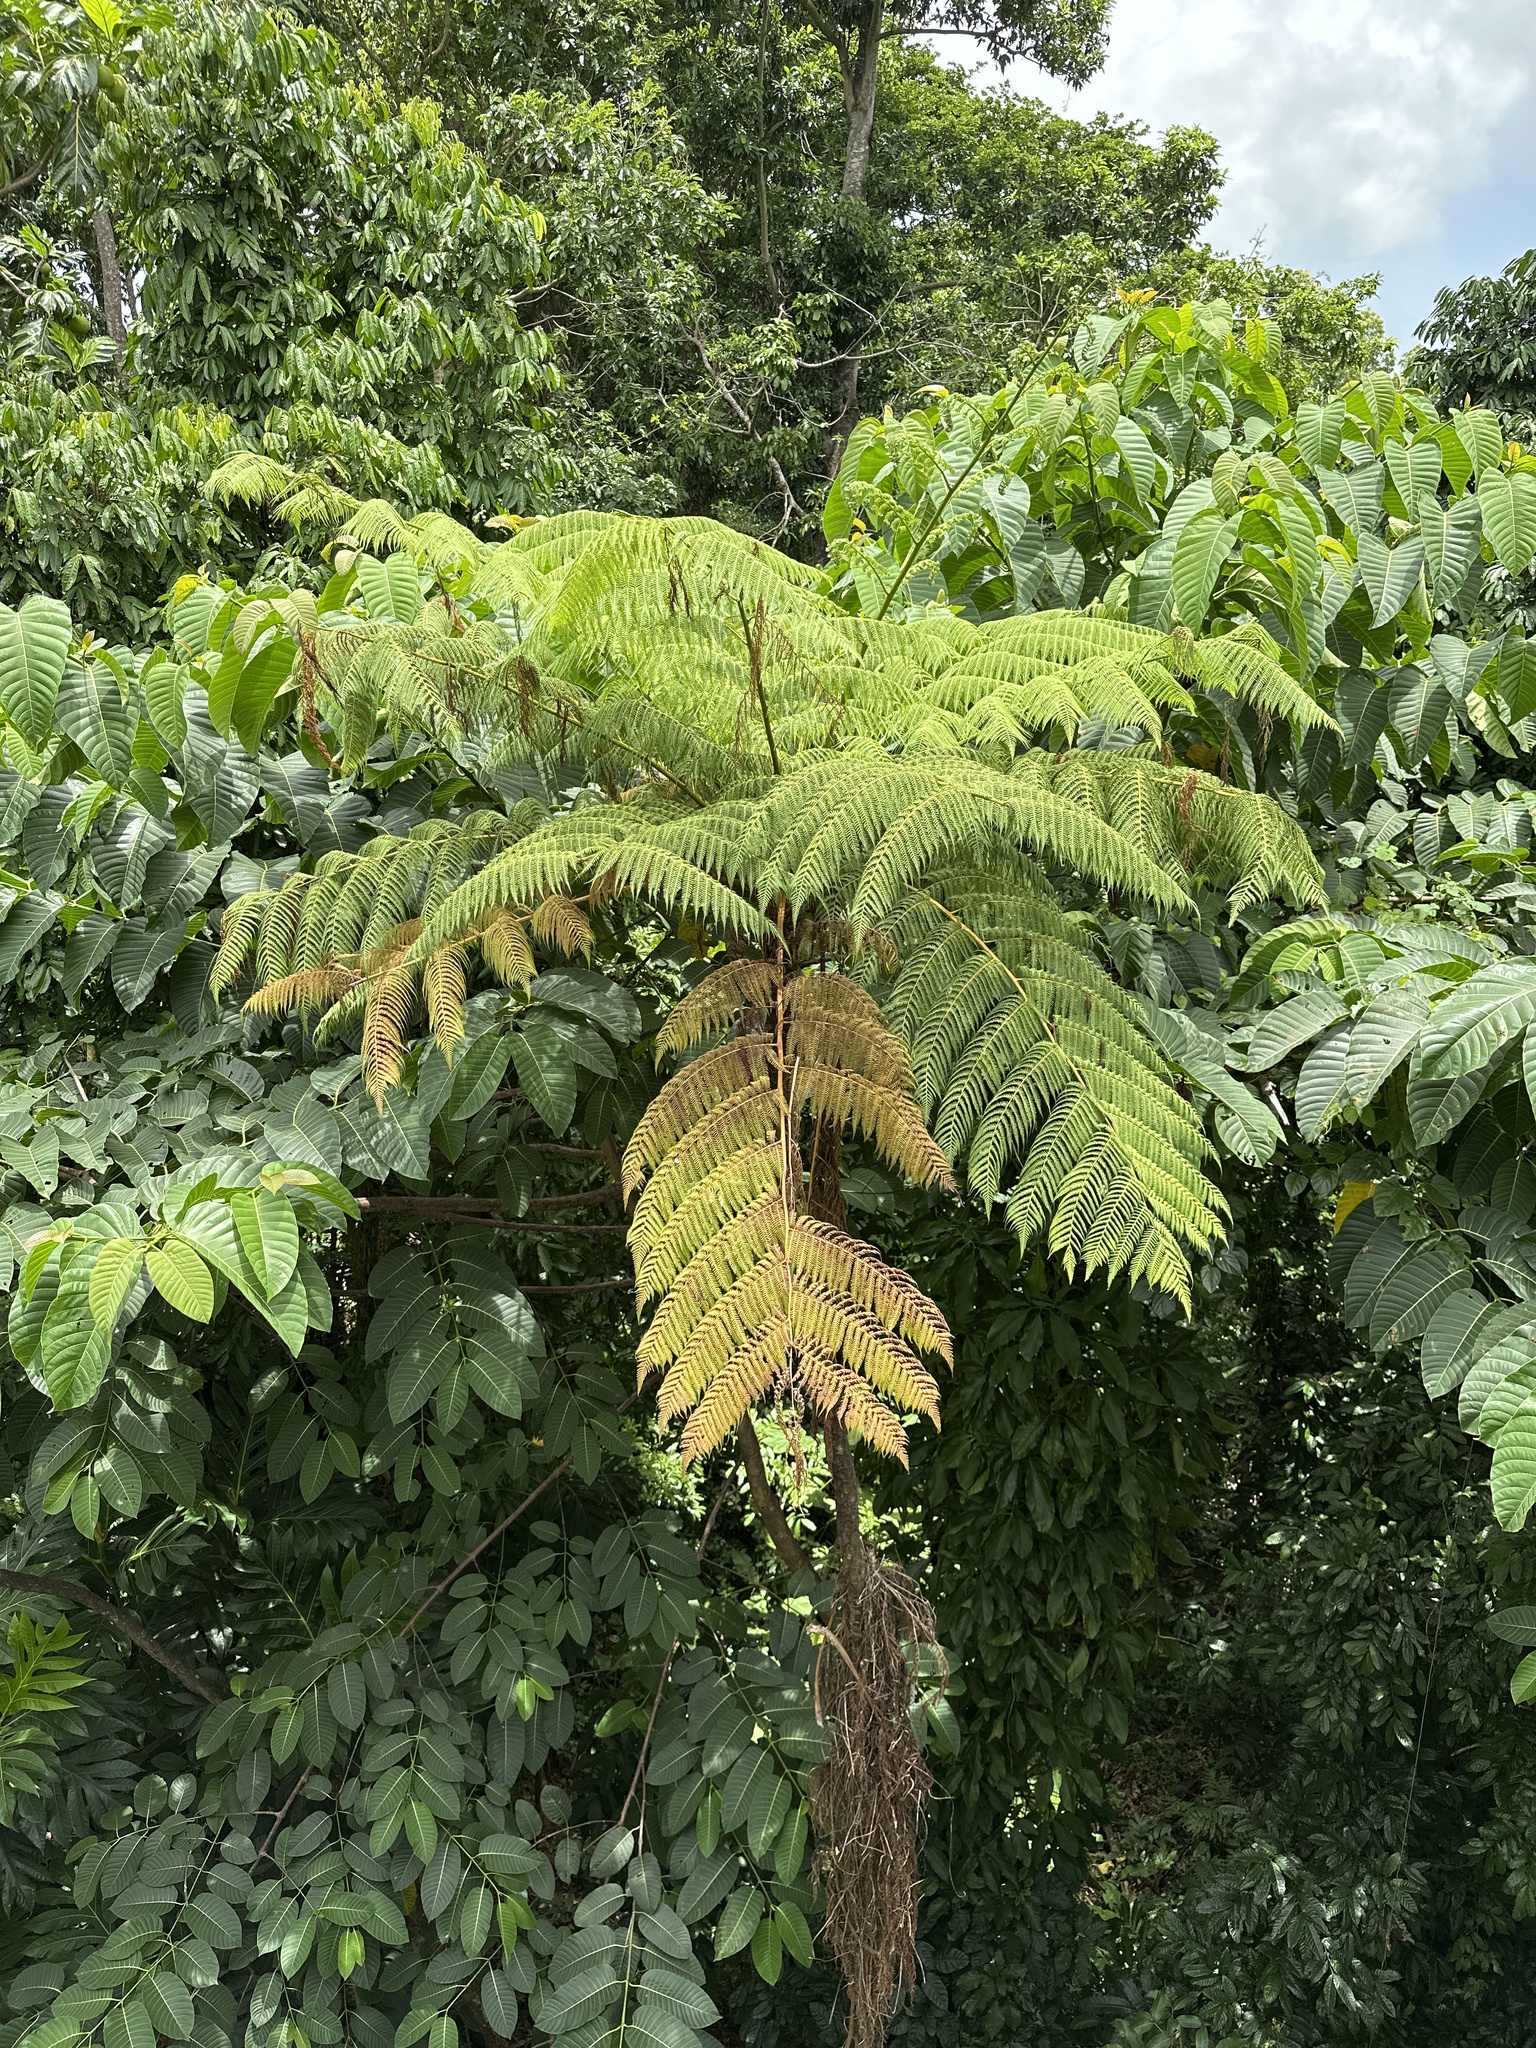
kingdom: Plantae
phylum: Tracheophyta
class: Polypodiopsida
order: Cyatheales
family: Cyatheaceae
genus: Cyathea
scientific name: Cyathea arborea
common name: West indian treefern
